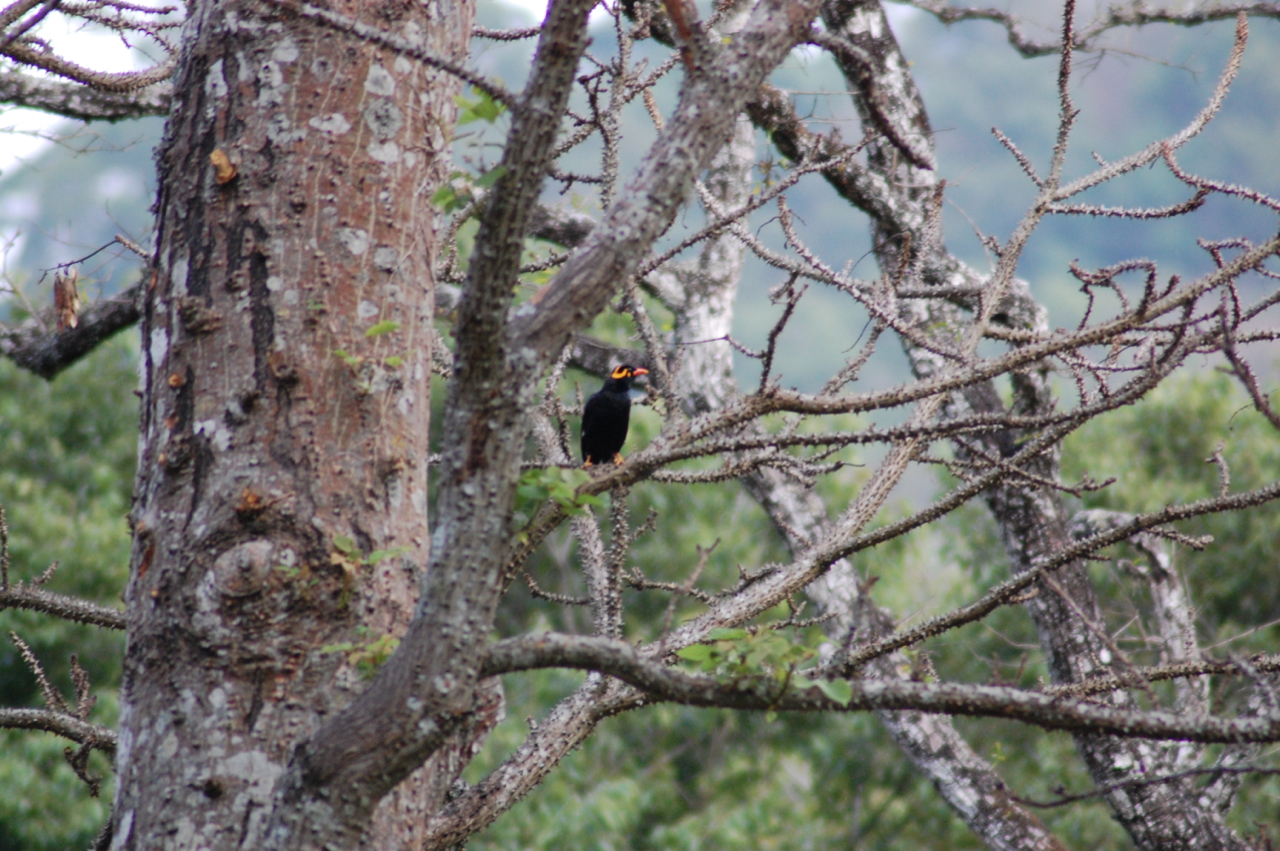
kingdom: Animalia
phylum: Chordata
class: Aves
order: Passeriformes
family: Sturnidae
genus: Gracula
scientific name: Gracula indica
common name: Southern hill myna
